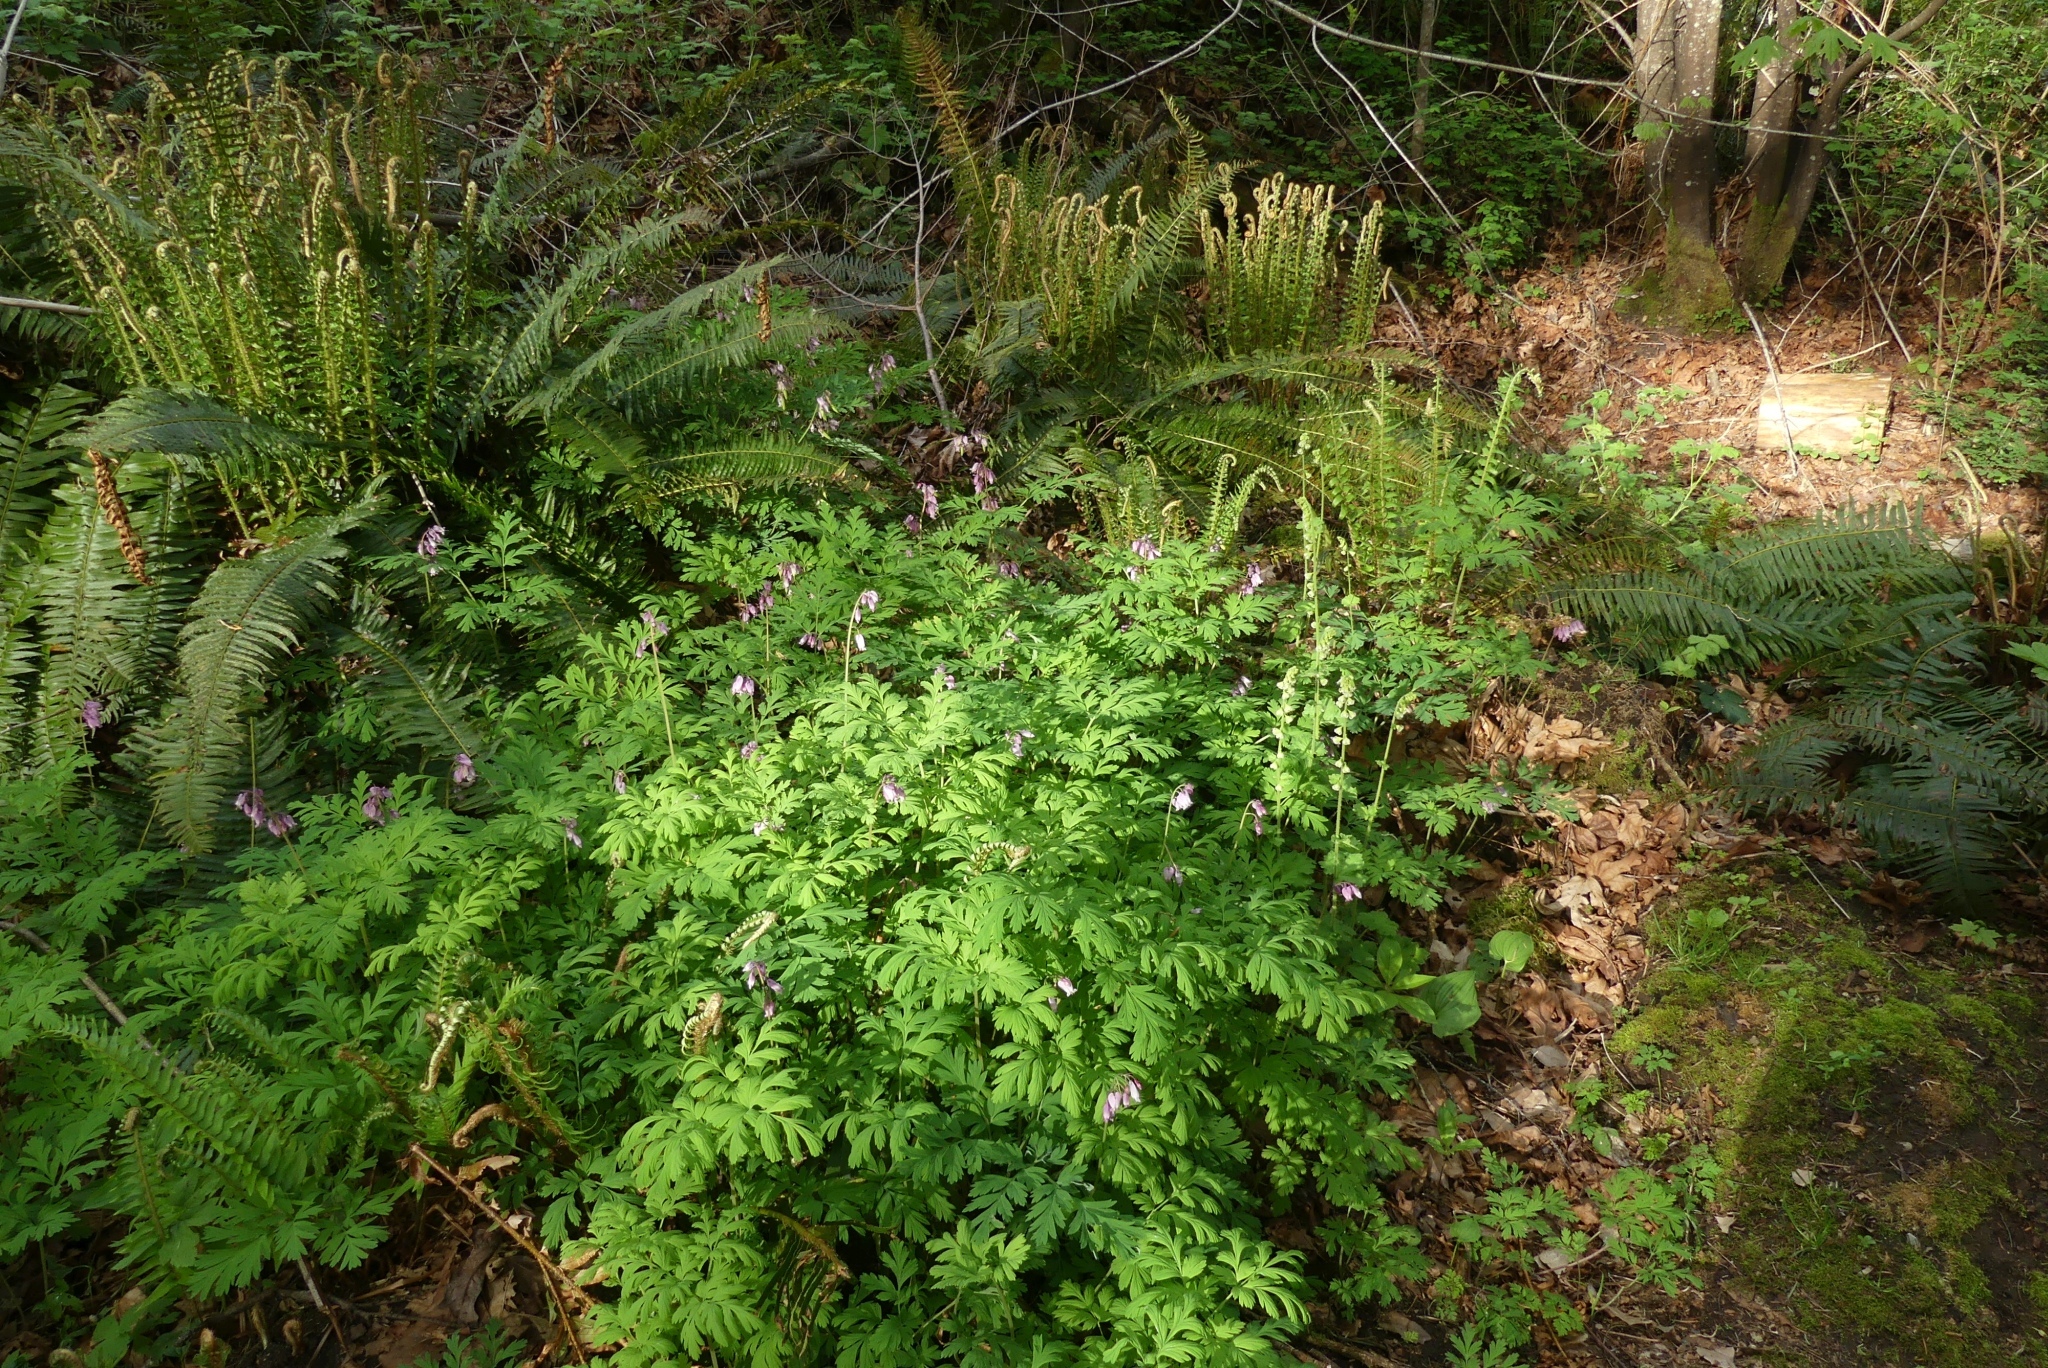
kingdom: Plantae
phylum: Tracheophyta
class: Magnoliopsida
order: Ranunculales
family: Papaveraceae
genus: Dicentra
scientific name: Dicentra formosa
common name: Bleeding-heart
